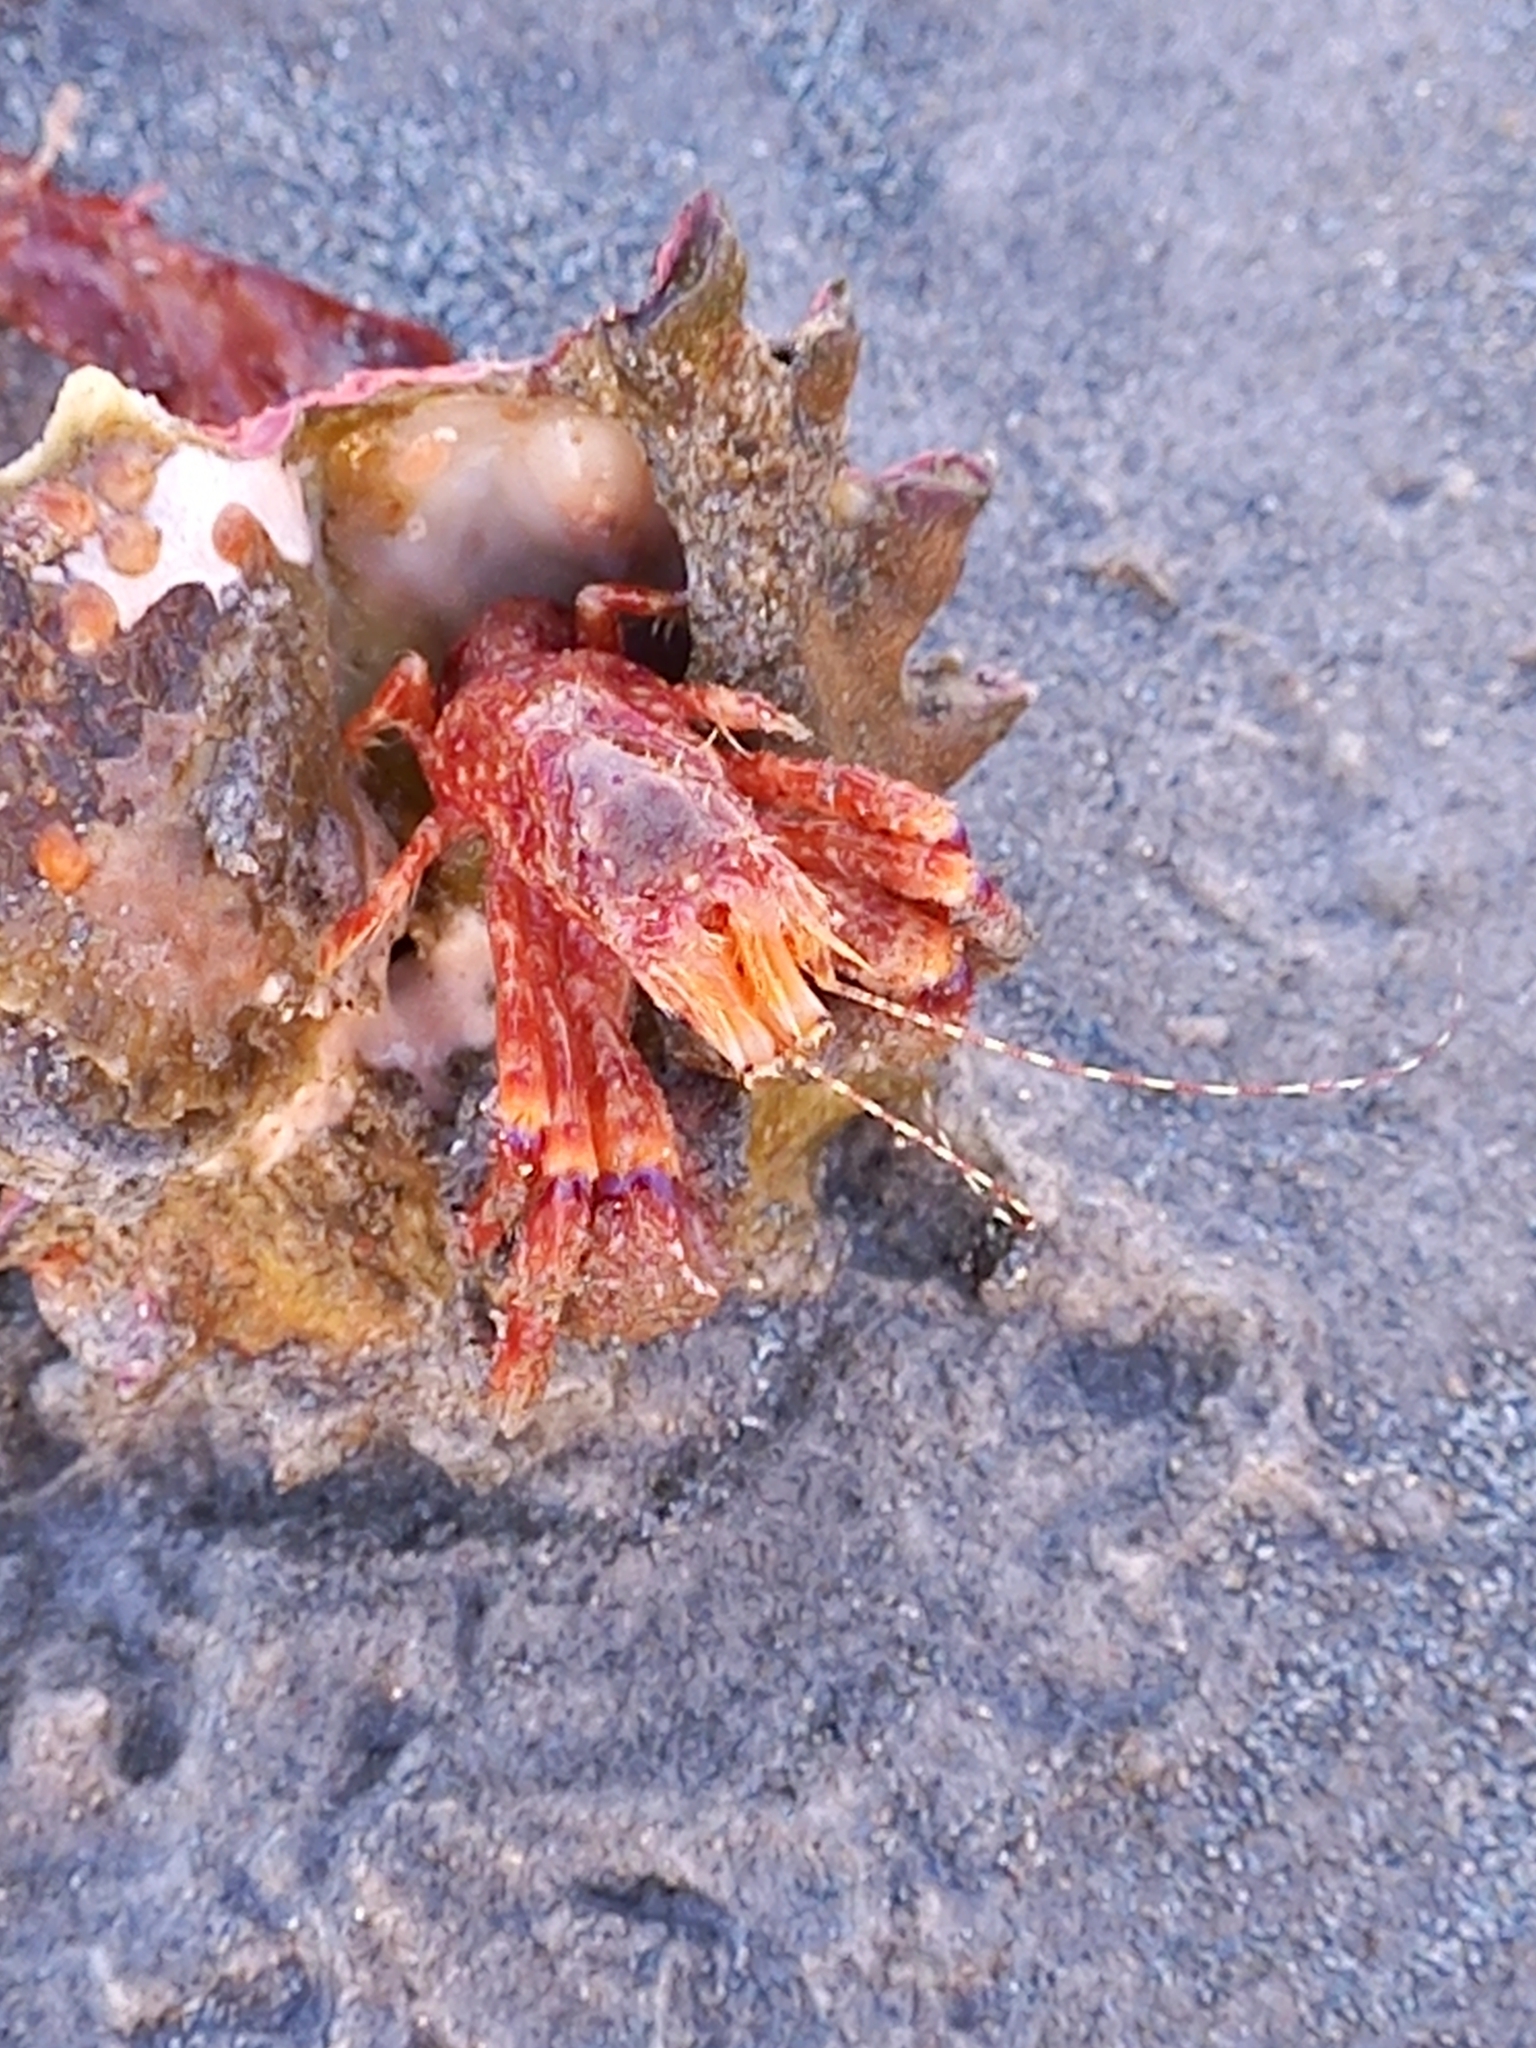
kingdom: Animalia
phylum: Arthropoda
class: Malacostraca
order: Decapoda
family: Paguridae
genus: Diacanthurus
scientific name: Diacanthurus spinulimanus
